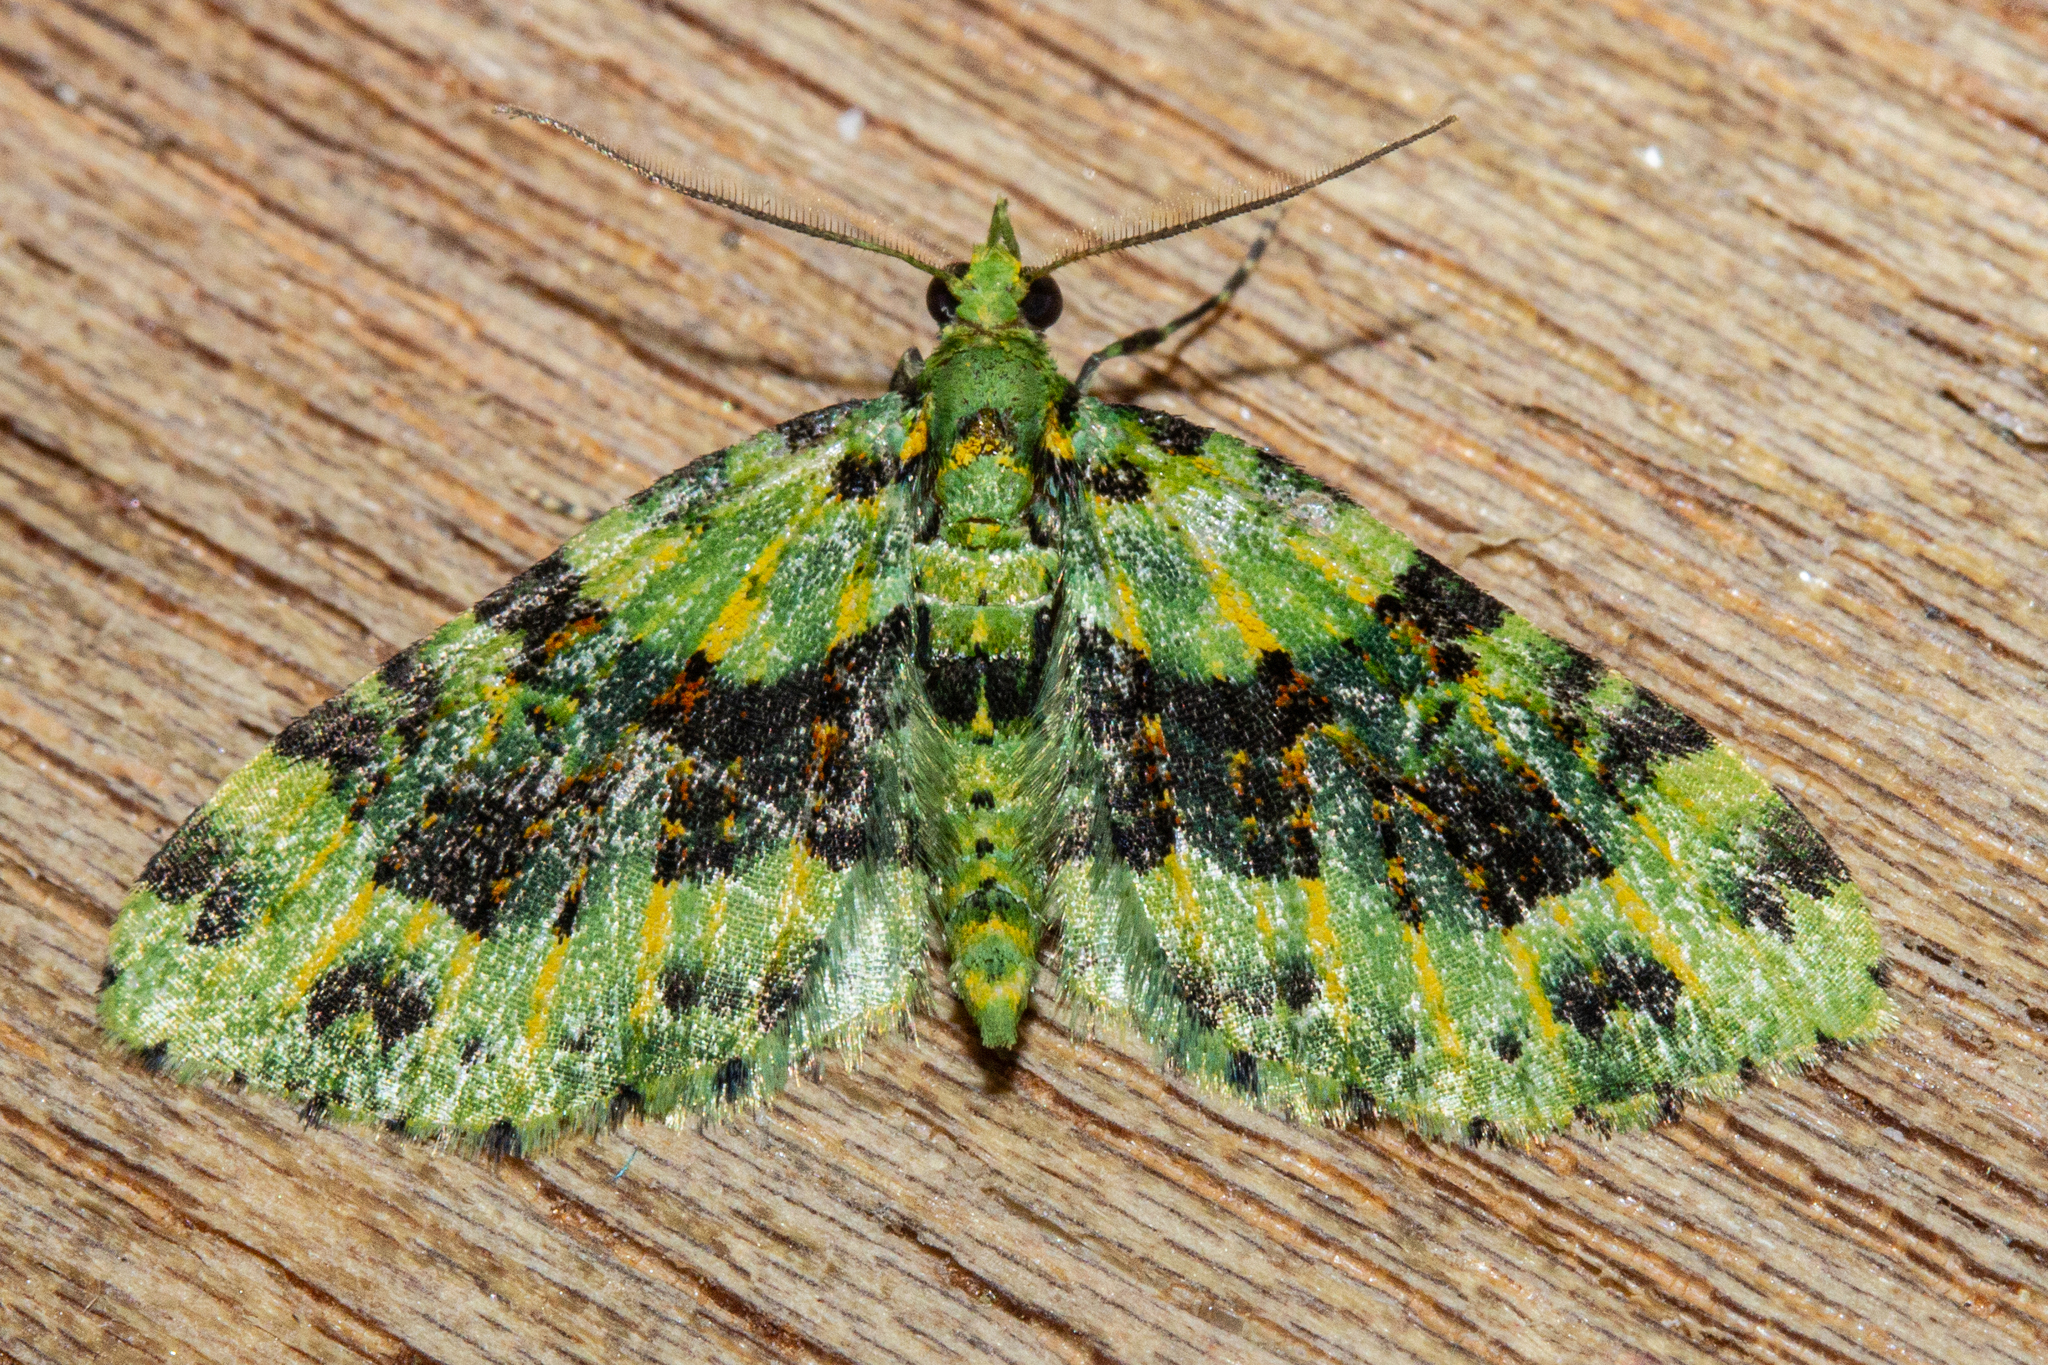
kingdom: Animalia
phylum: Arthropoda
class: Insecta
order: Lepidoptera
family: Geometridae
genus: Pasiphila
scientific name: Pasiphila melochlora
